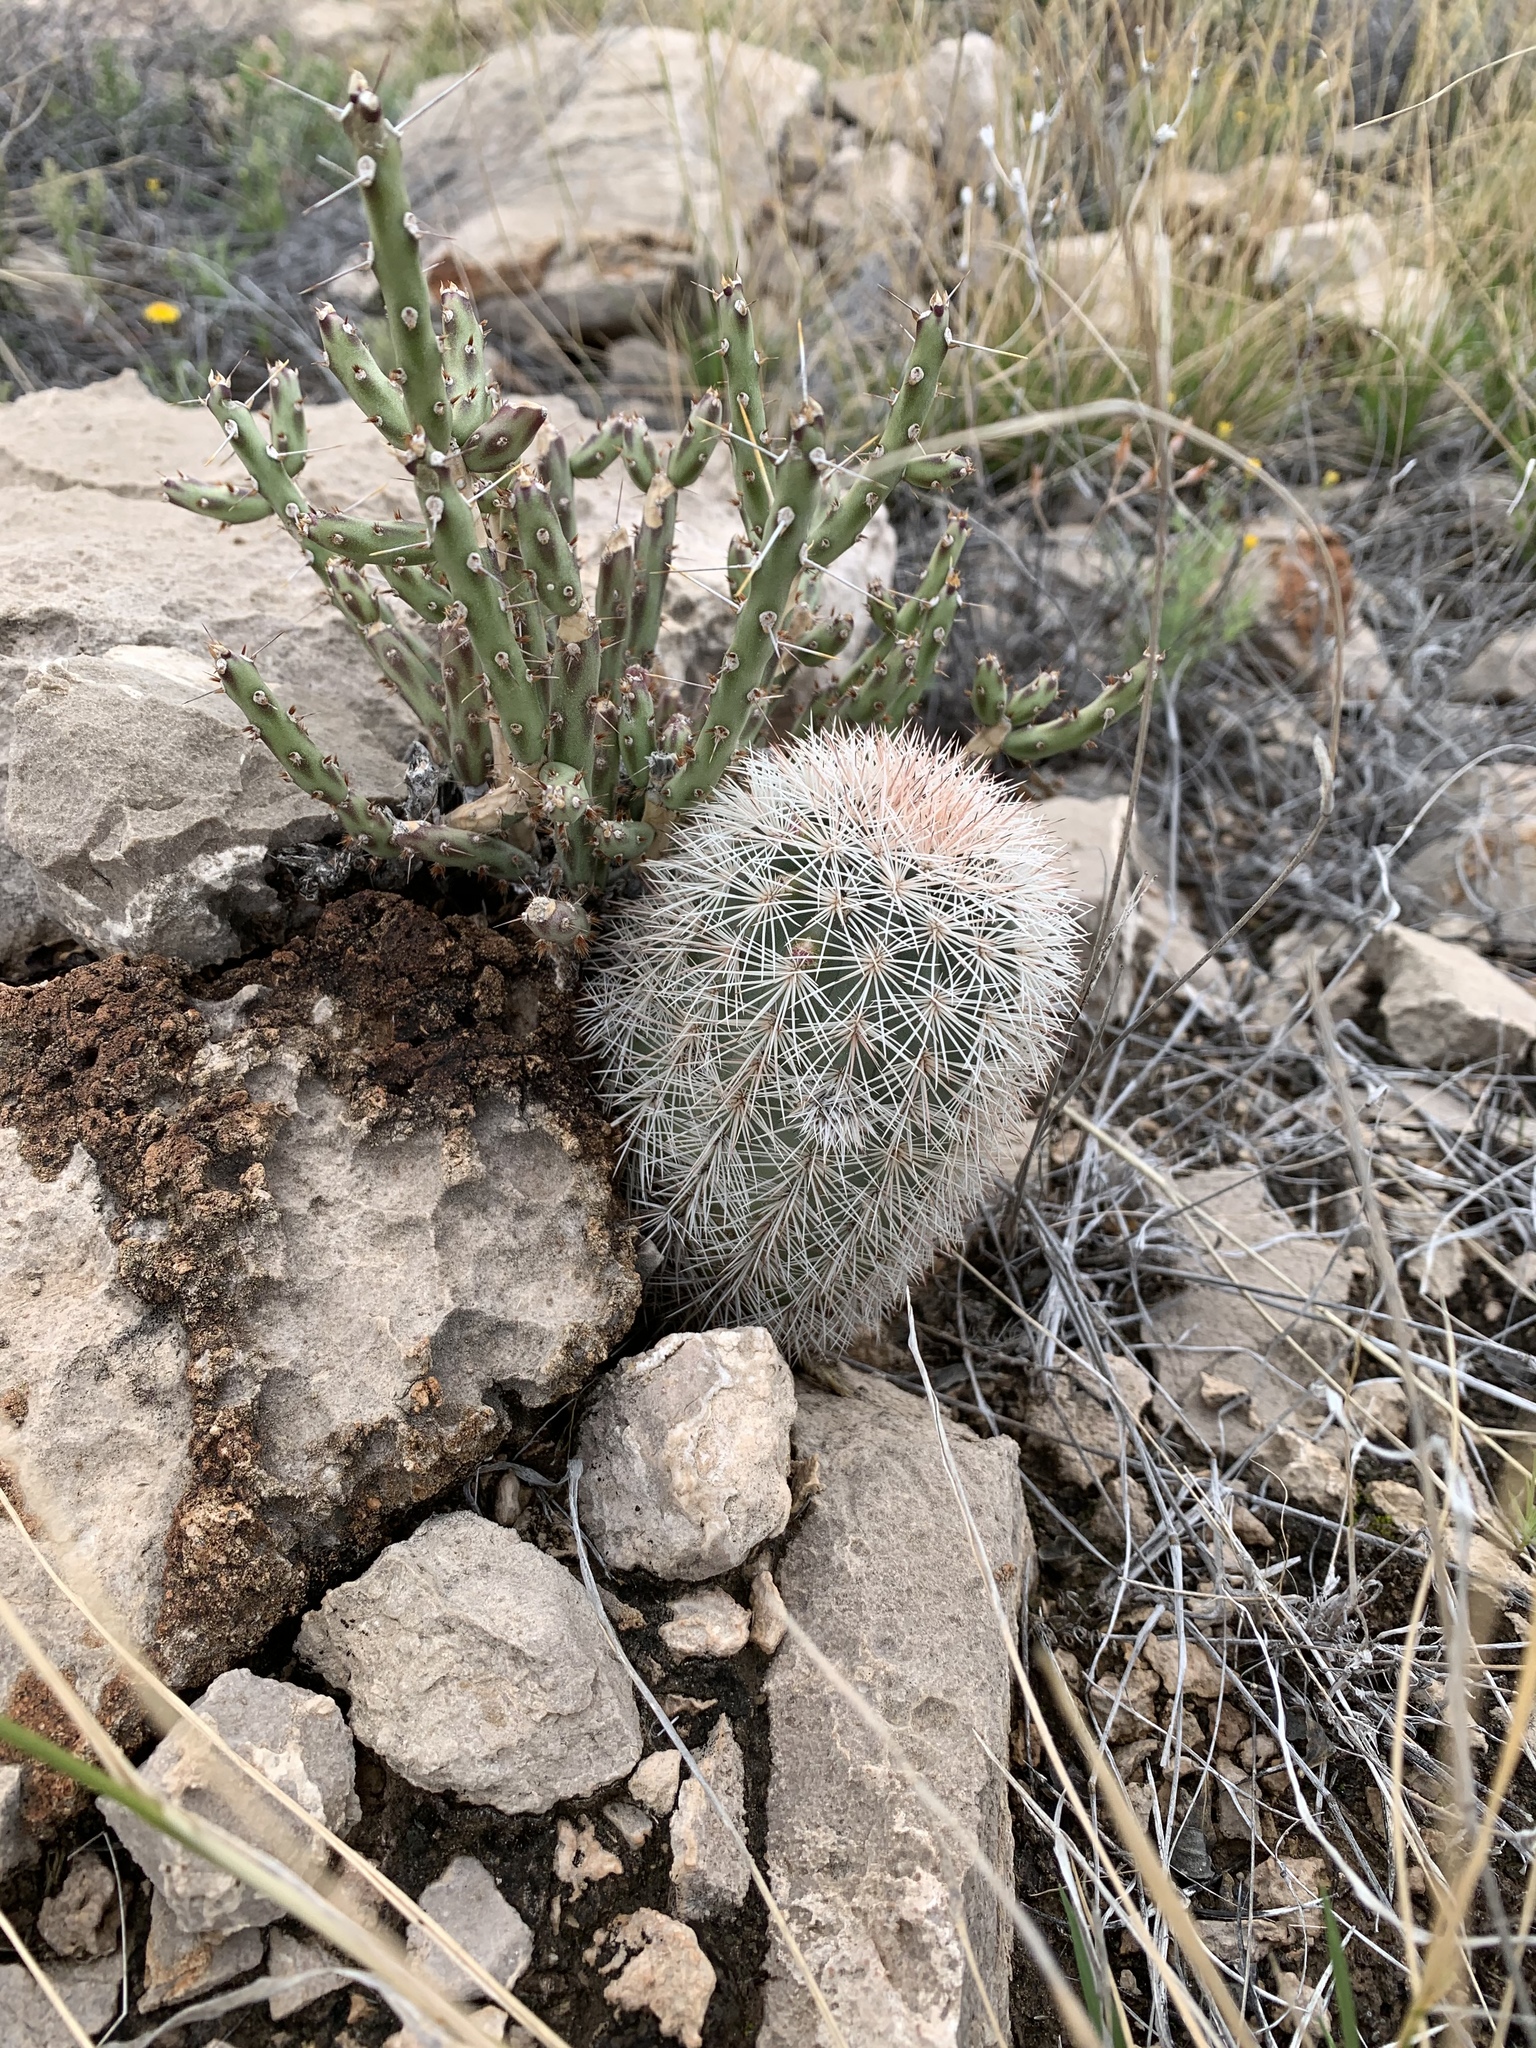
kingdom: Plantae
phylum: Tracheophyta
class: Magnoliopsida
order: Caryophyllales
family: Cactaceae
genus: Echinocereus
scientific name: Echinocereus dasyacanthus
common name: Spiny hedgehog cactus
